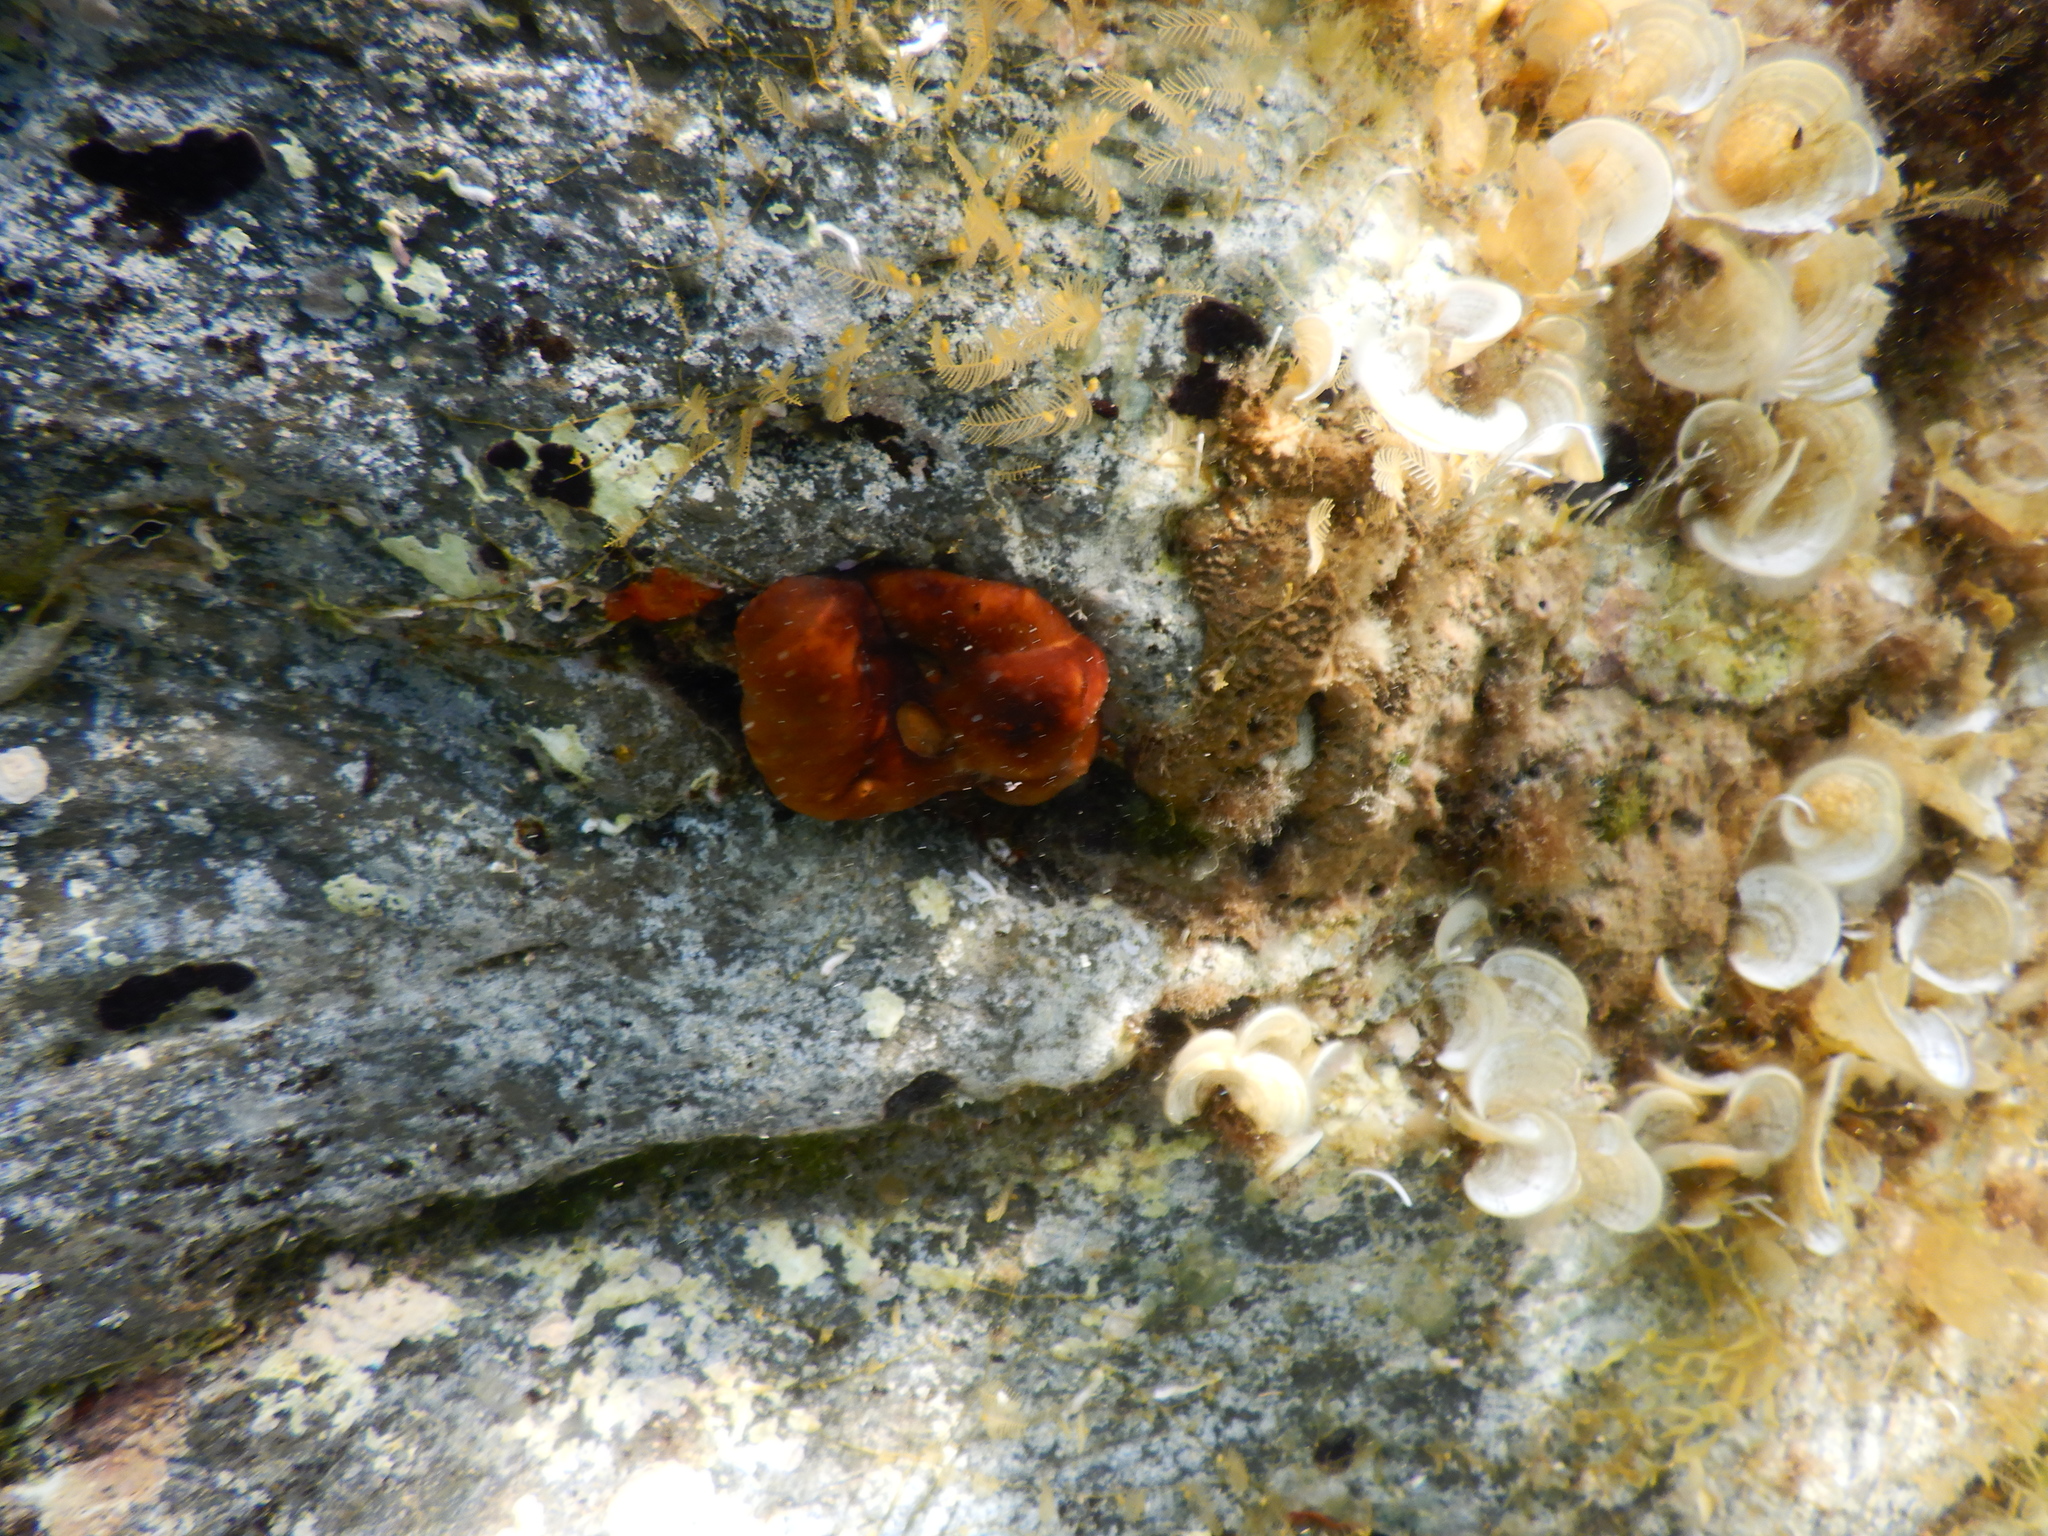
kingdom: Animalia
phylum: Cnidaria
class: Anthozoa
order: Actiniaria
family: Actiniidae
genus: Actinia
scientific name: Actinia mediterranea
